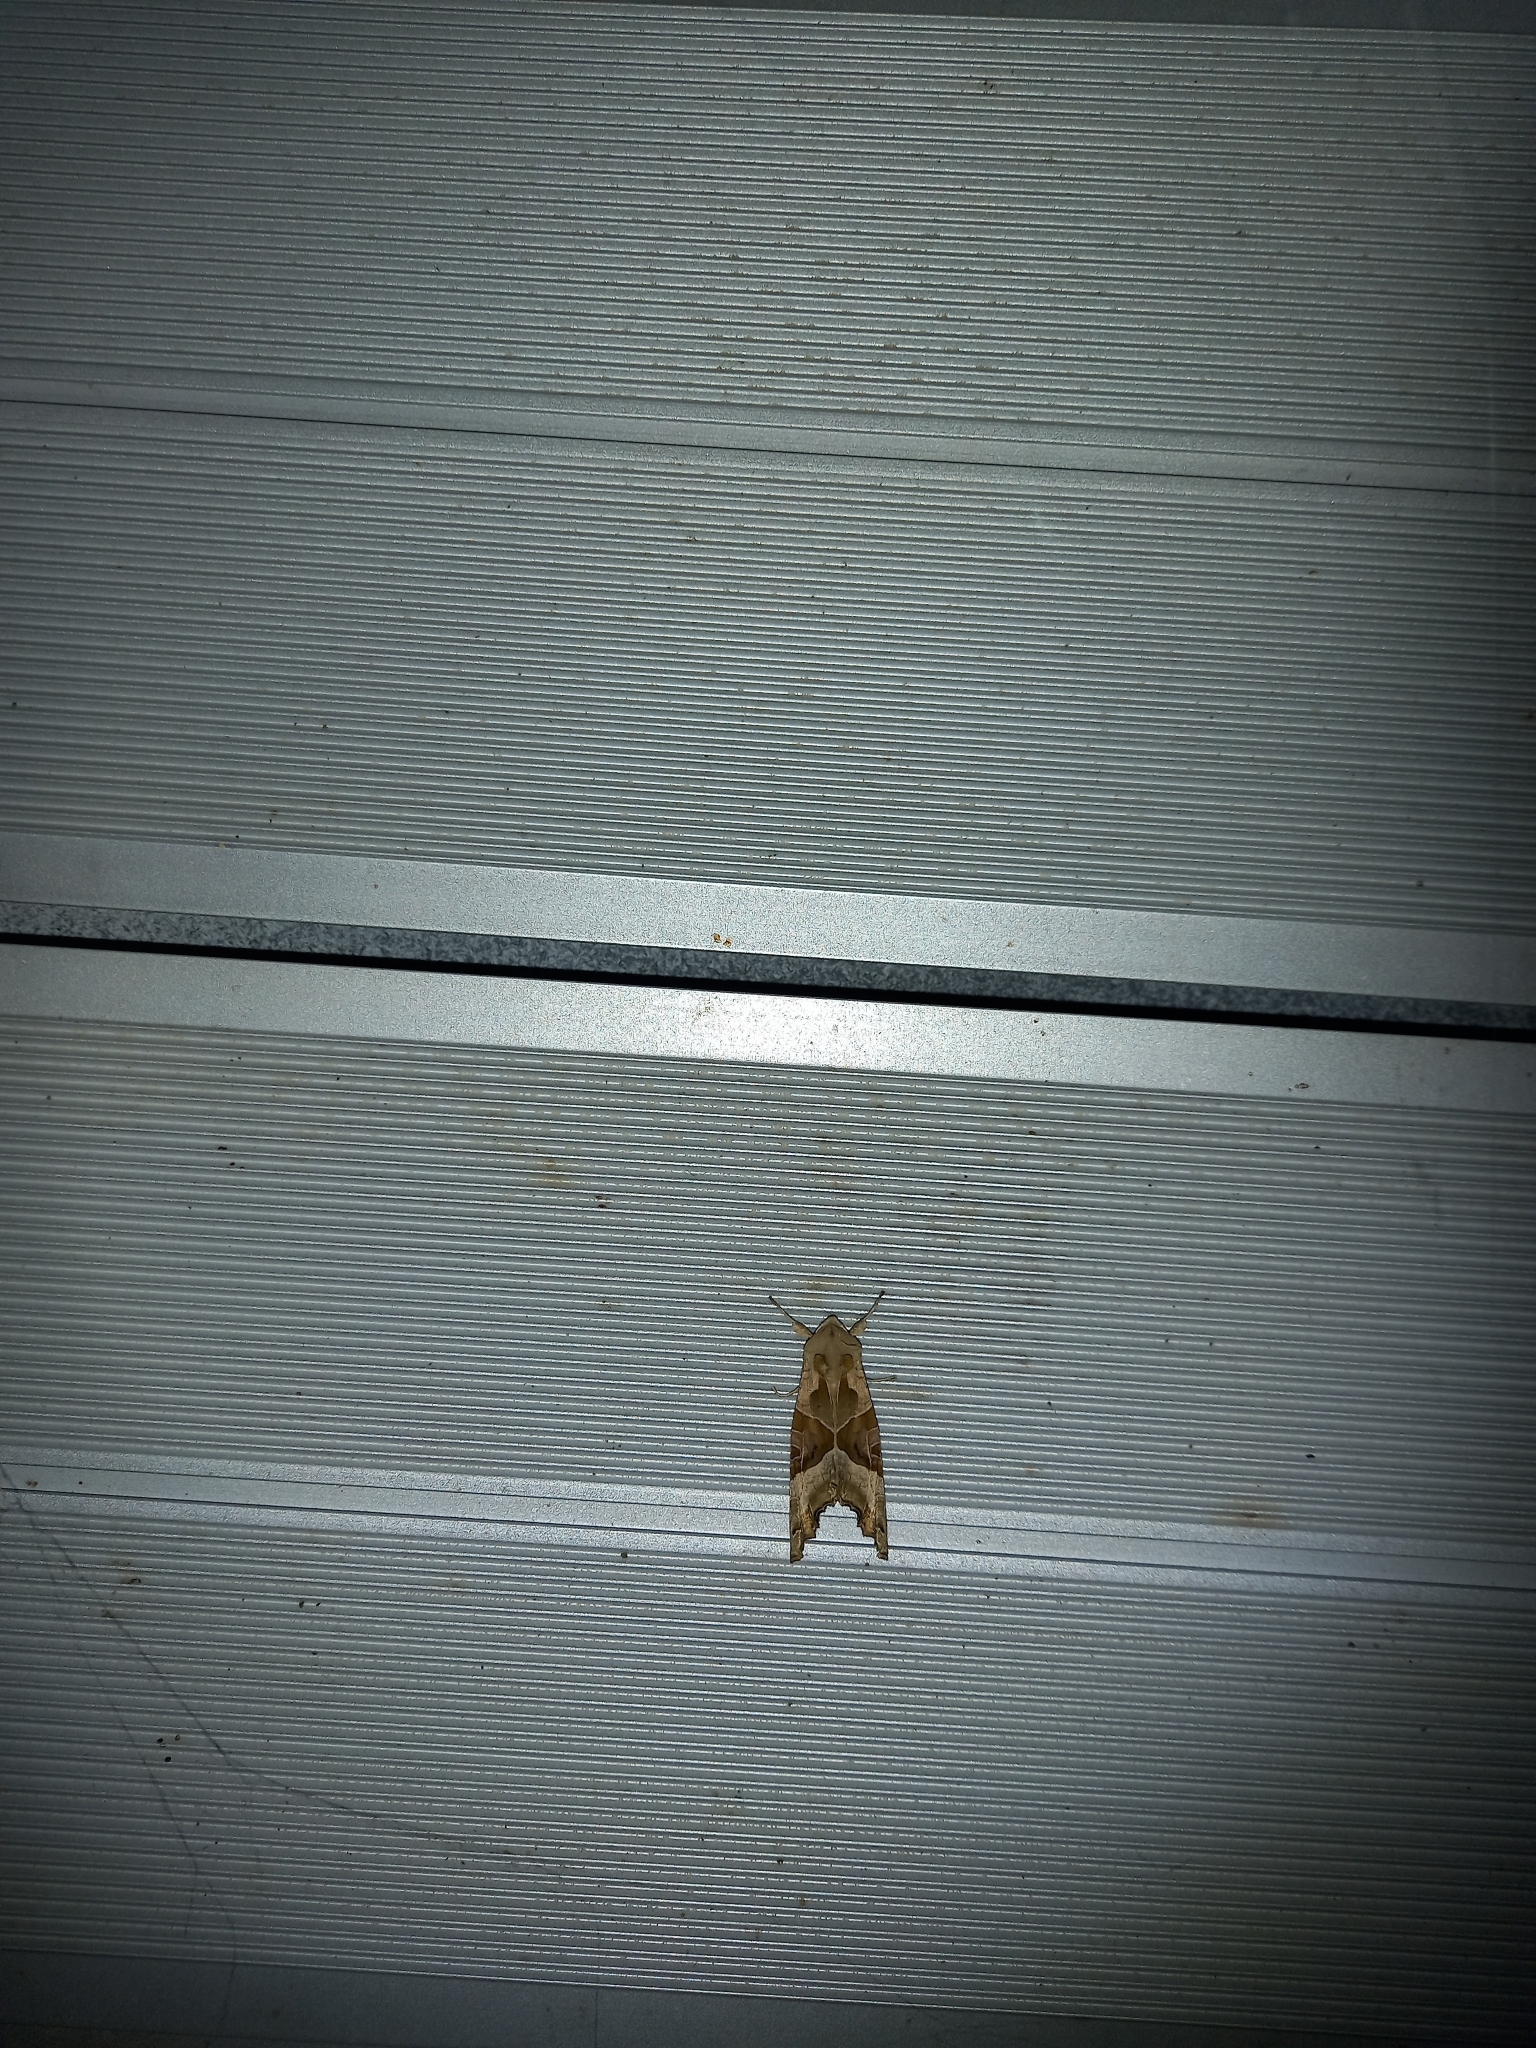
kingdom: Animalia
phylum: Arthropoda
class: Insecta
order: Lepidoptera
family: Noctuidae
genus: Phlogophora
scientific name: Phlogophora meticulosa
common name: Angle shades
